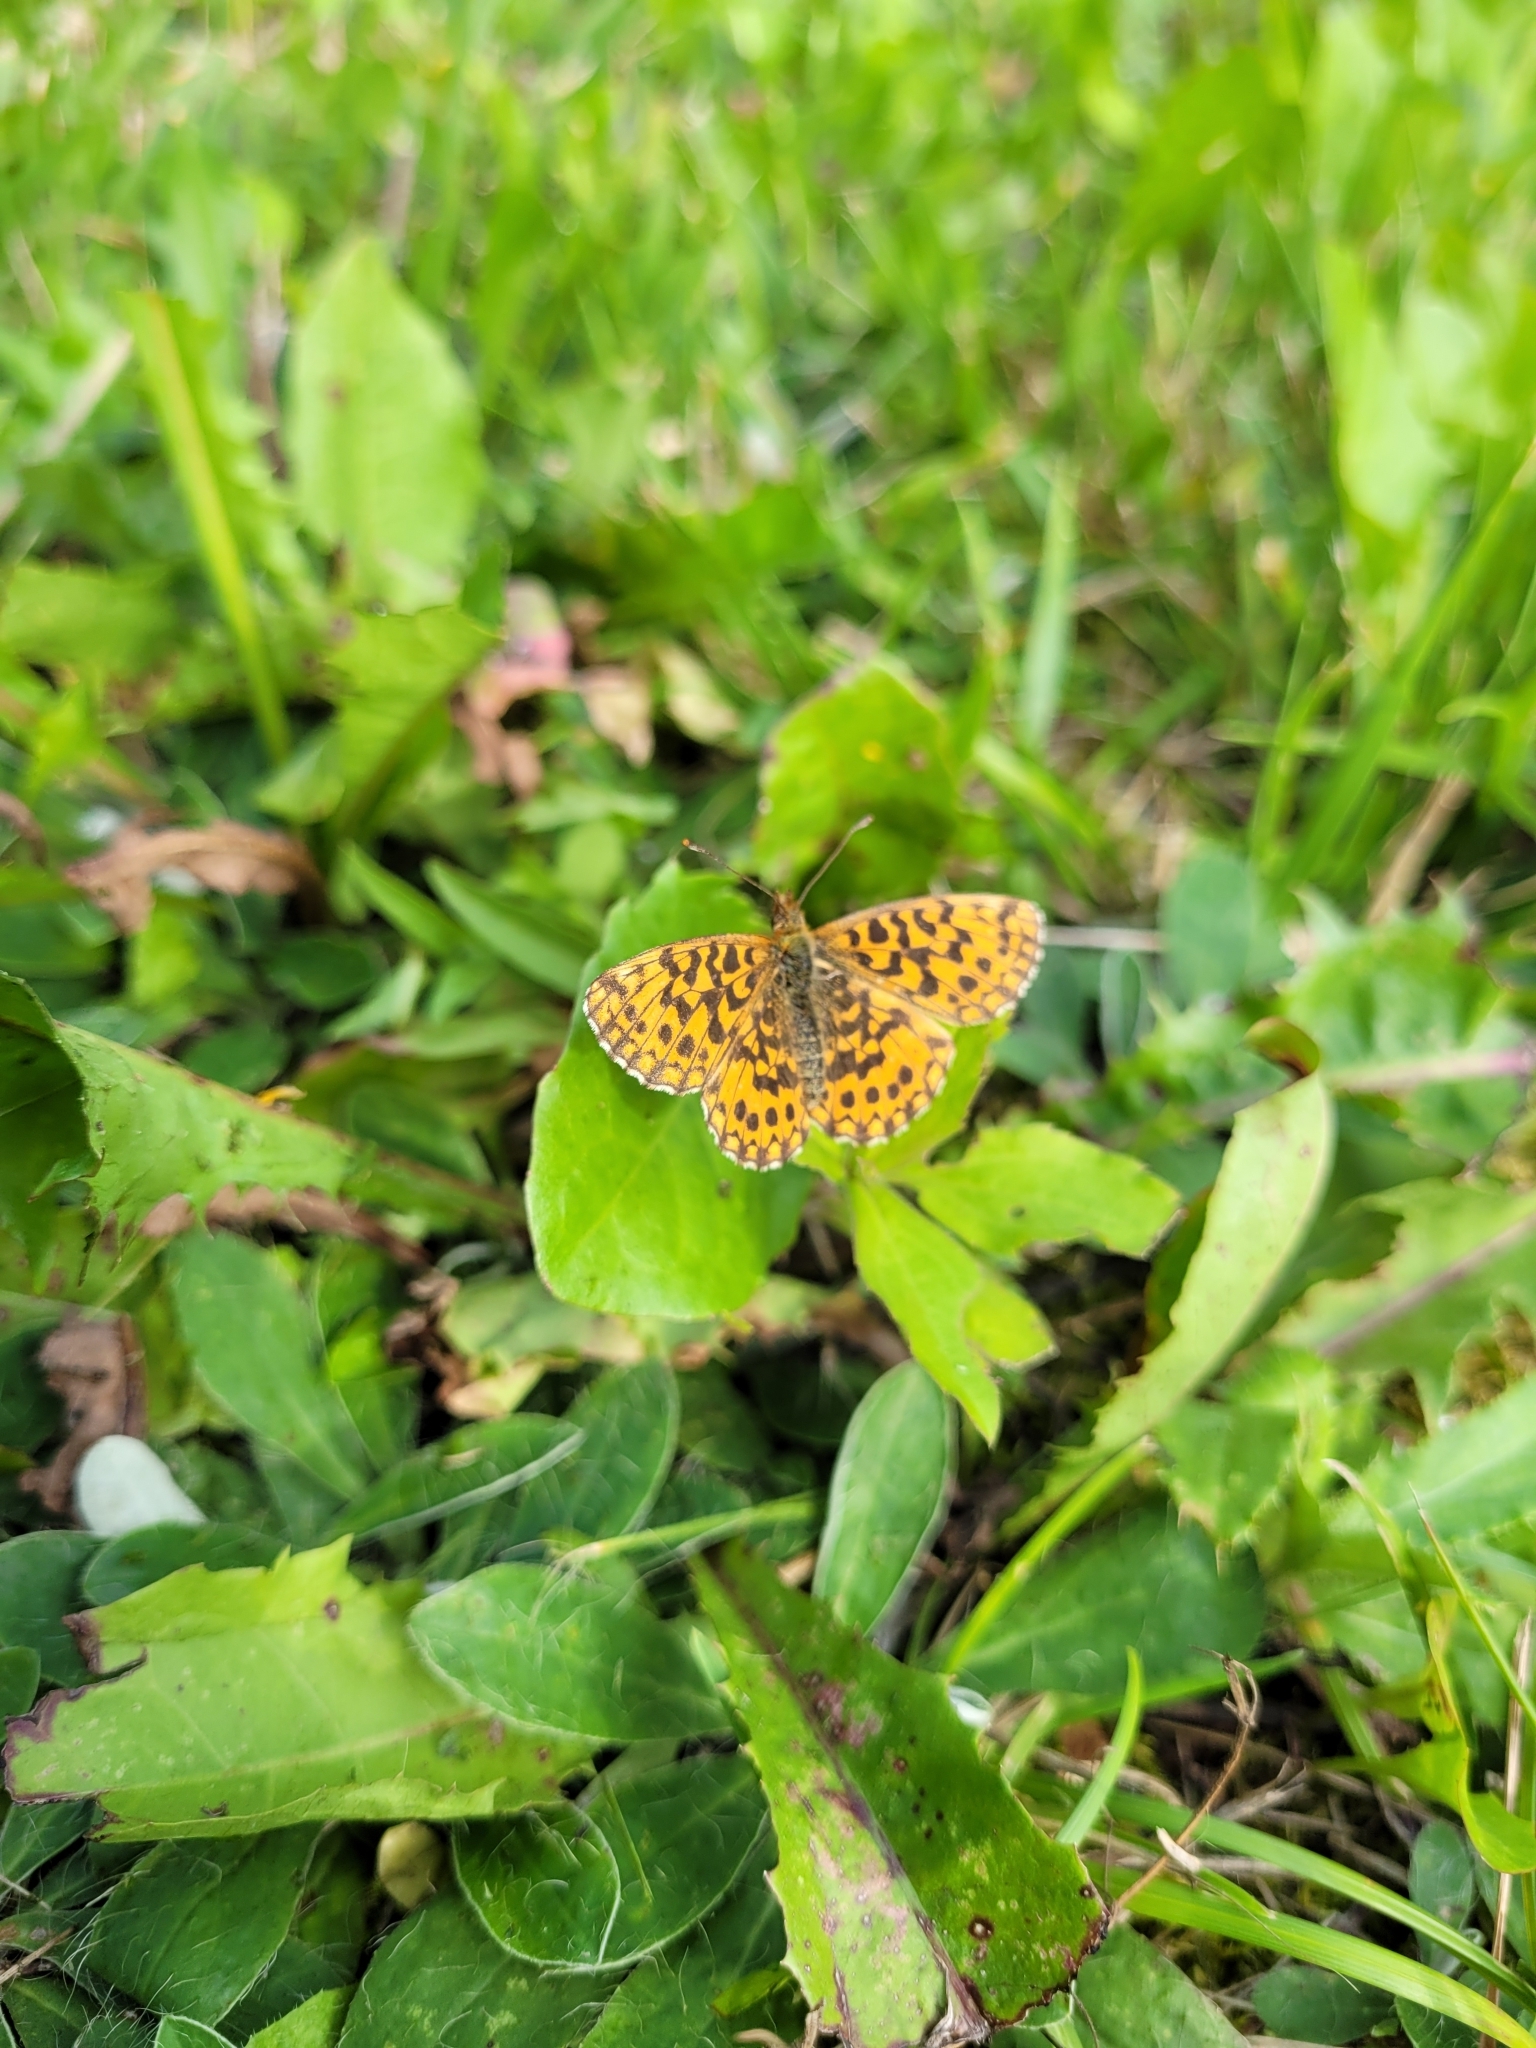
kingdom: Animalia
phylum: Arthropoda
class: Insecta
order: Lepidoptera
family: Nymphalidae
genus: Boloria
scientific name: Boloria dia
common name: Weaver's fritillary
